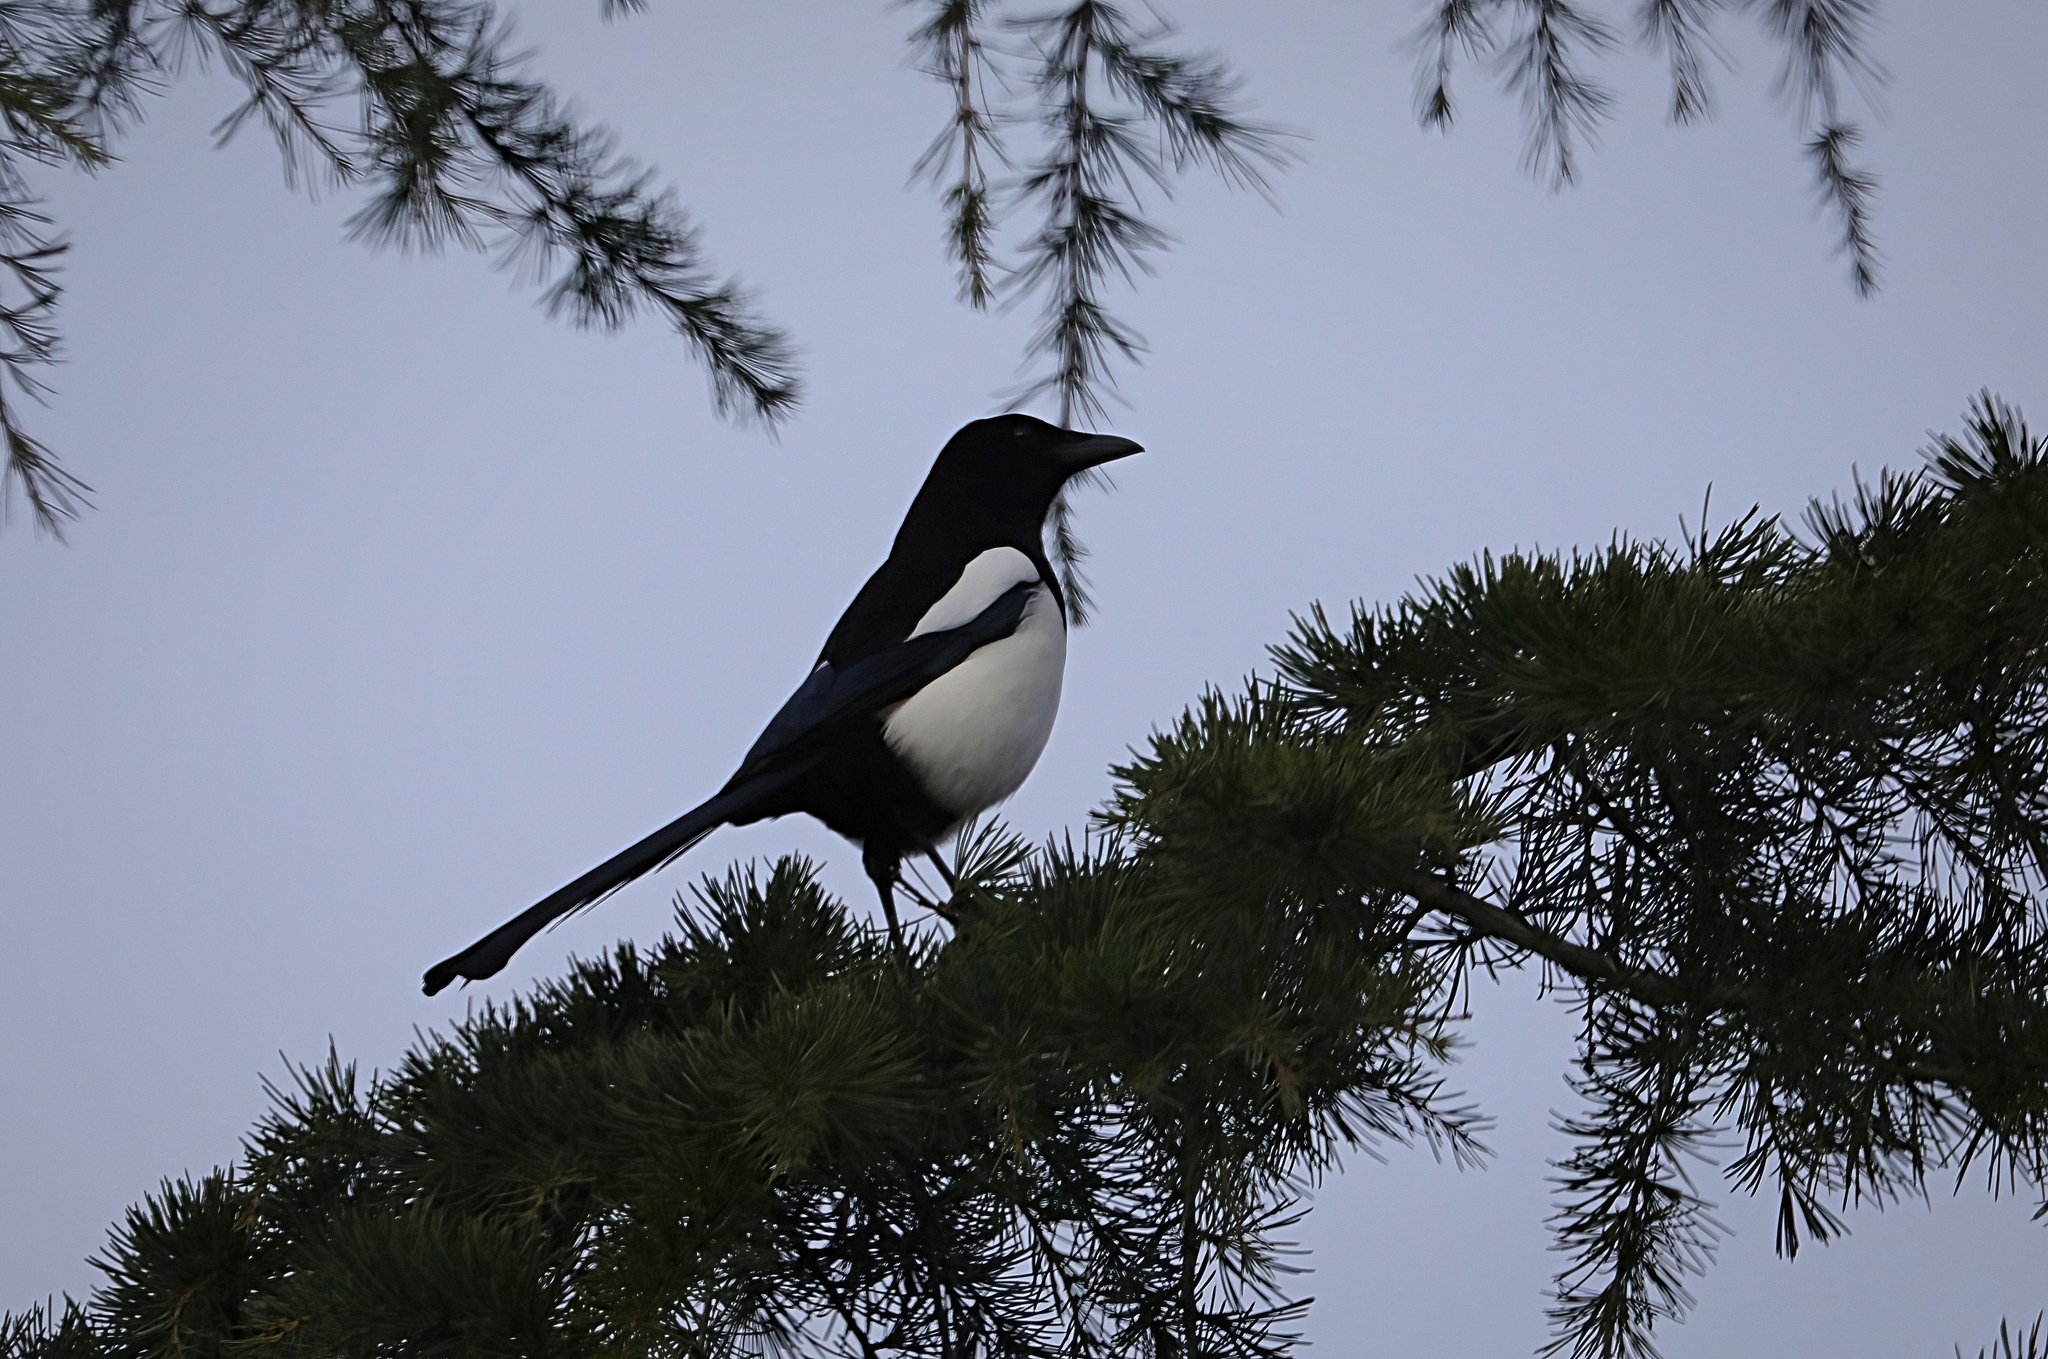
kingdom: Animalia
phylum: Chordata
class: Aves
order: Passeriformes
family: Corvidae
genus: Pica
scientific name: Pica pica
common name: Eurasian magpie
